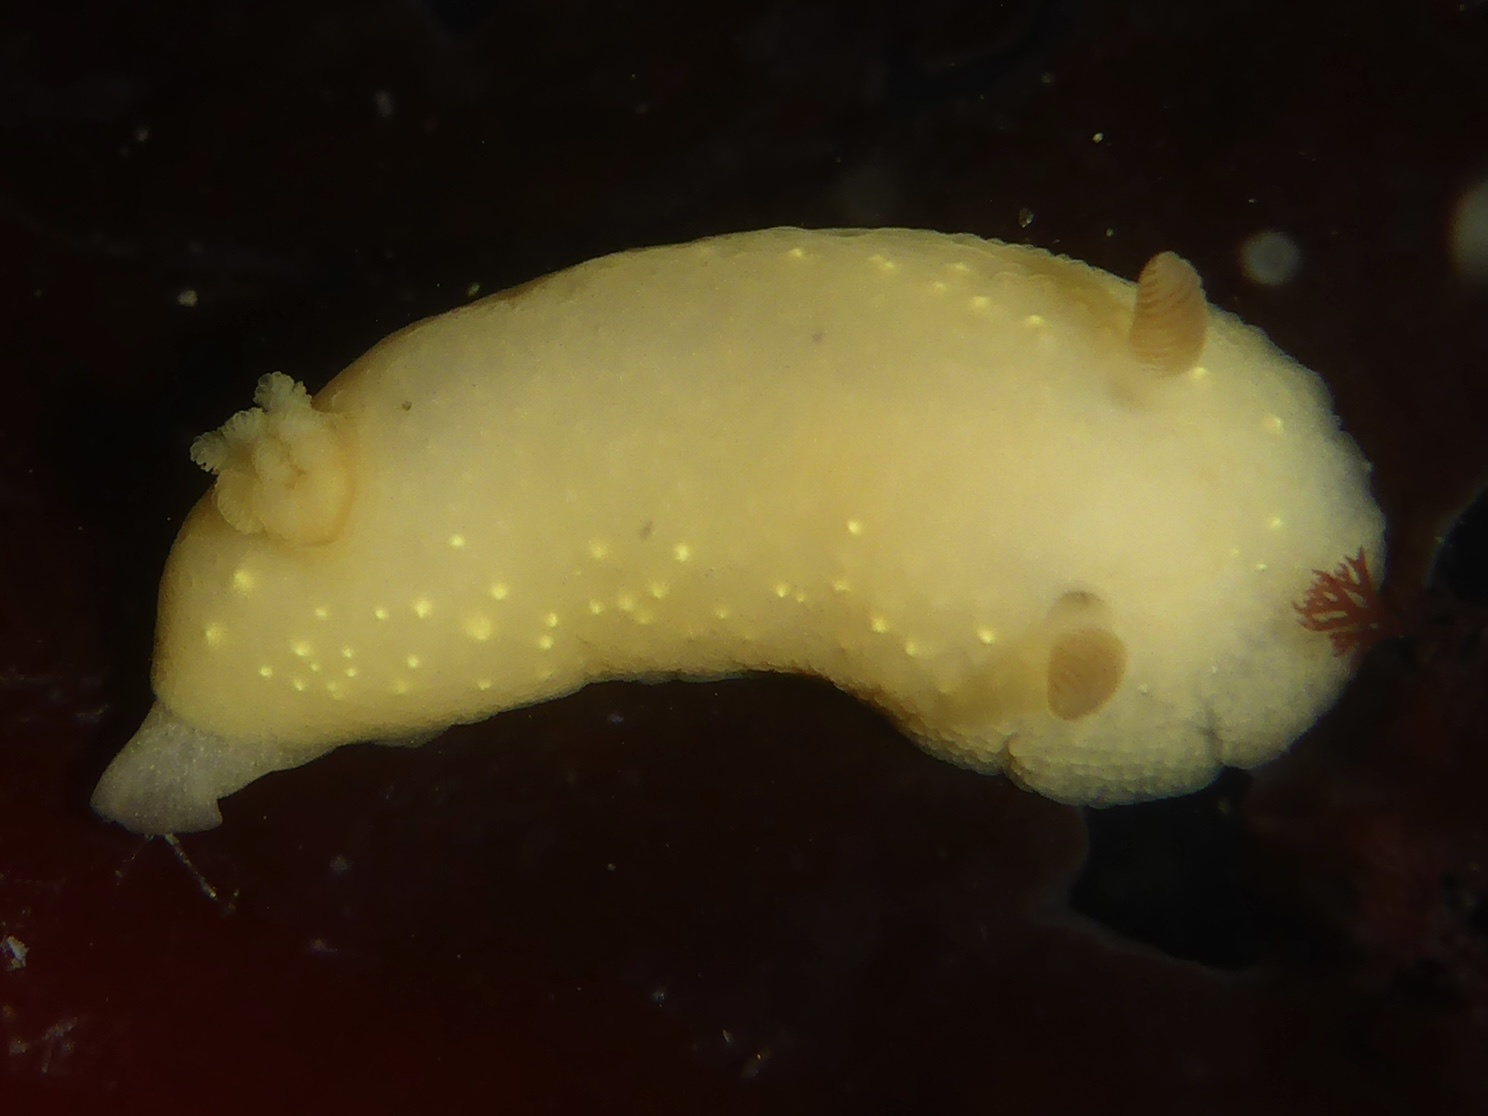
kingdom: Animalia
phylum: Mollusca
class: Gastropoda
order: Nudibranchia
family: Cadlinidae
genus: Cadlina
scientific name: Cadlina modesta
